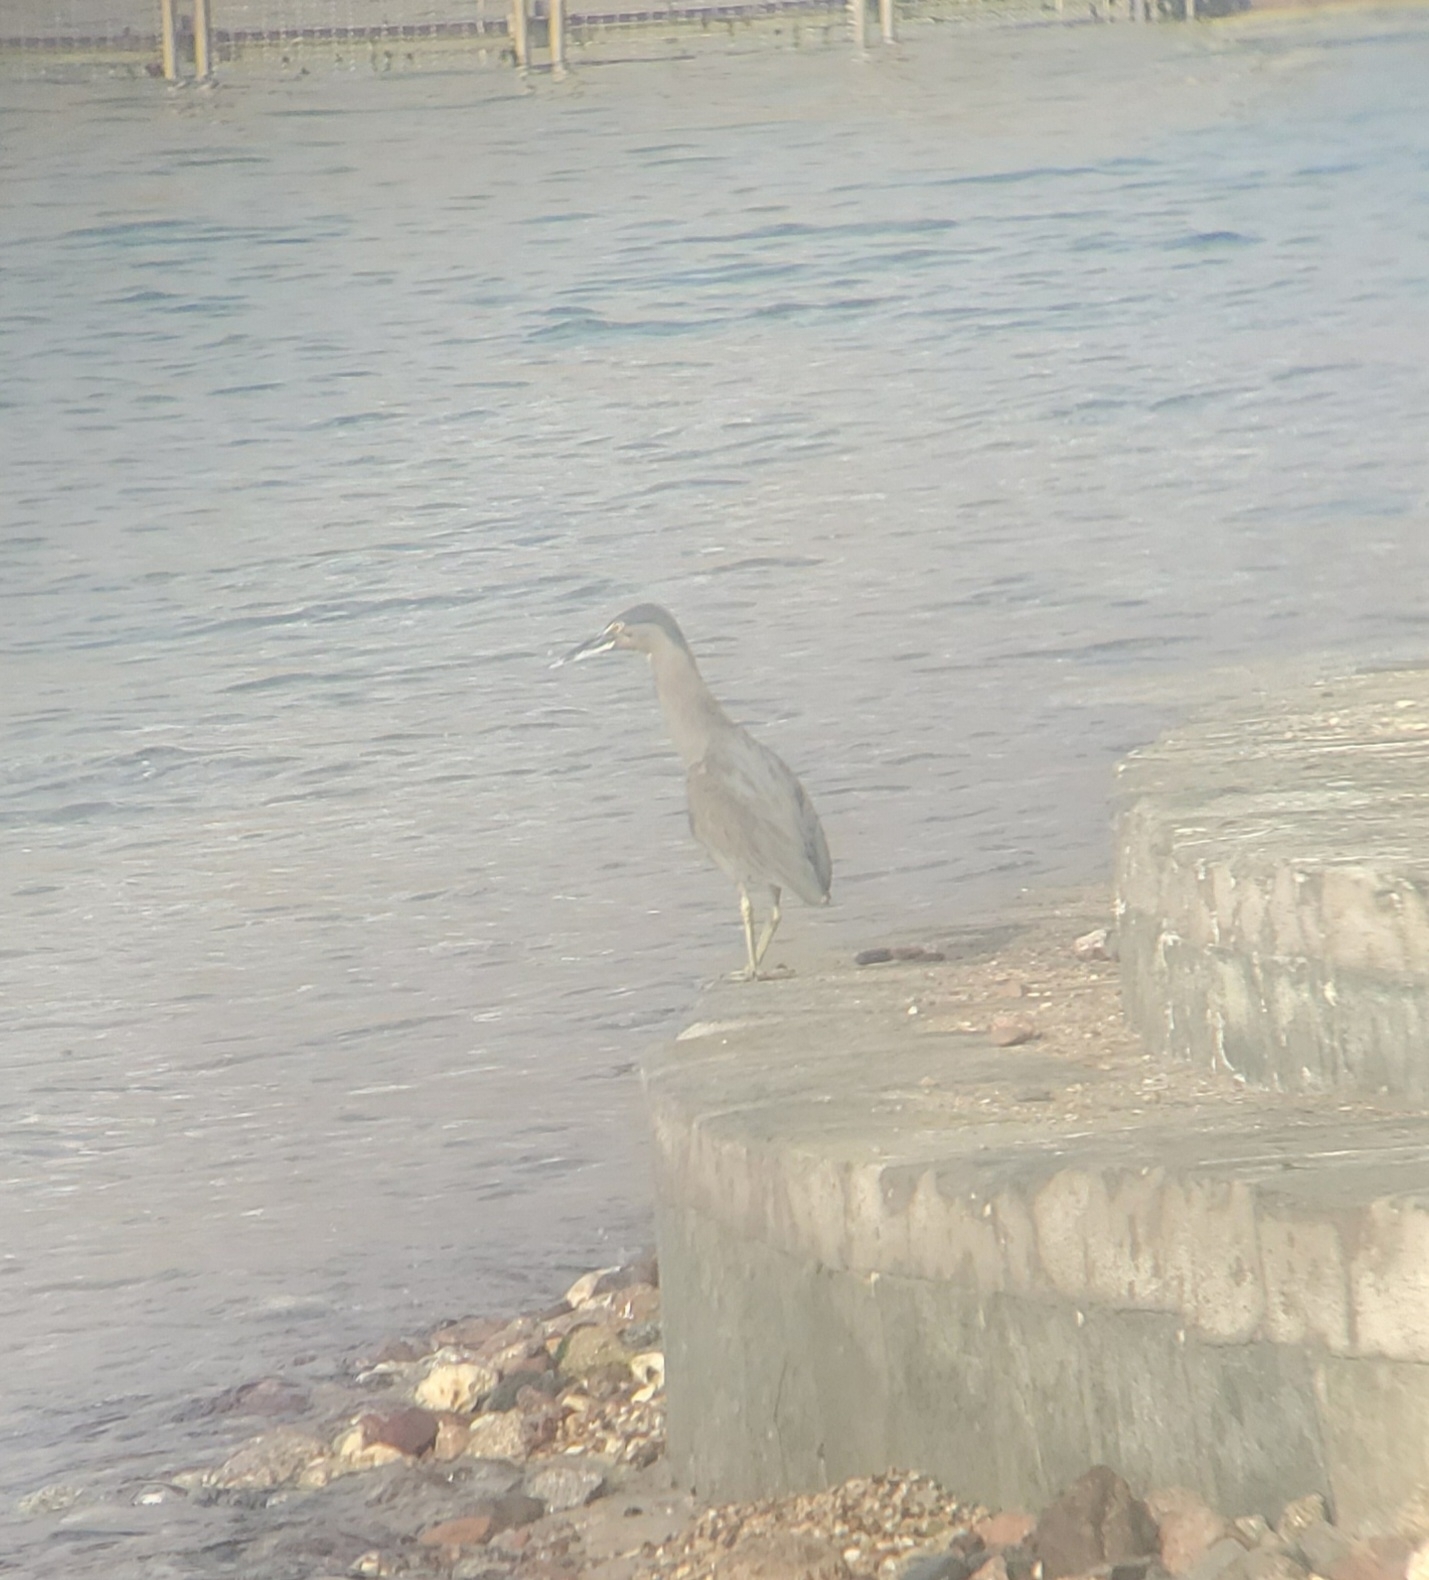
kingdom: Animalia
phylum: Chordata
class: Aves
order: Pelecaniformes
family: Ardeidae
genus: Butorides
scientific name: Butorides striata
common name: Striated heron
